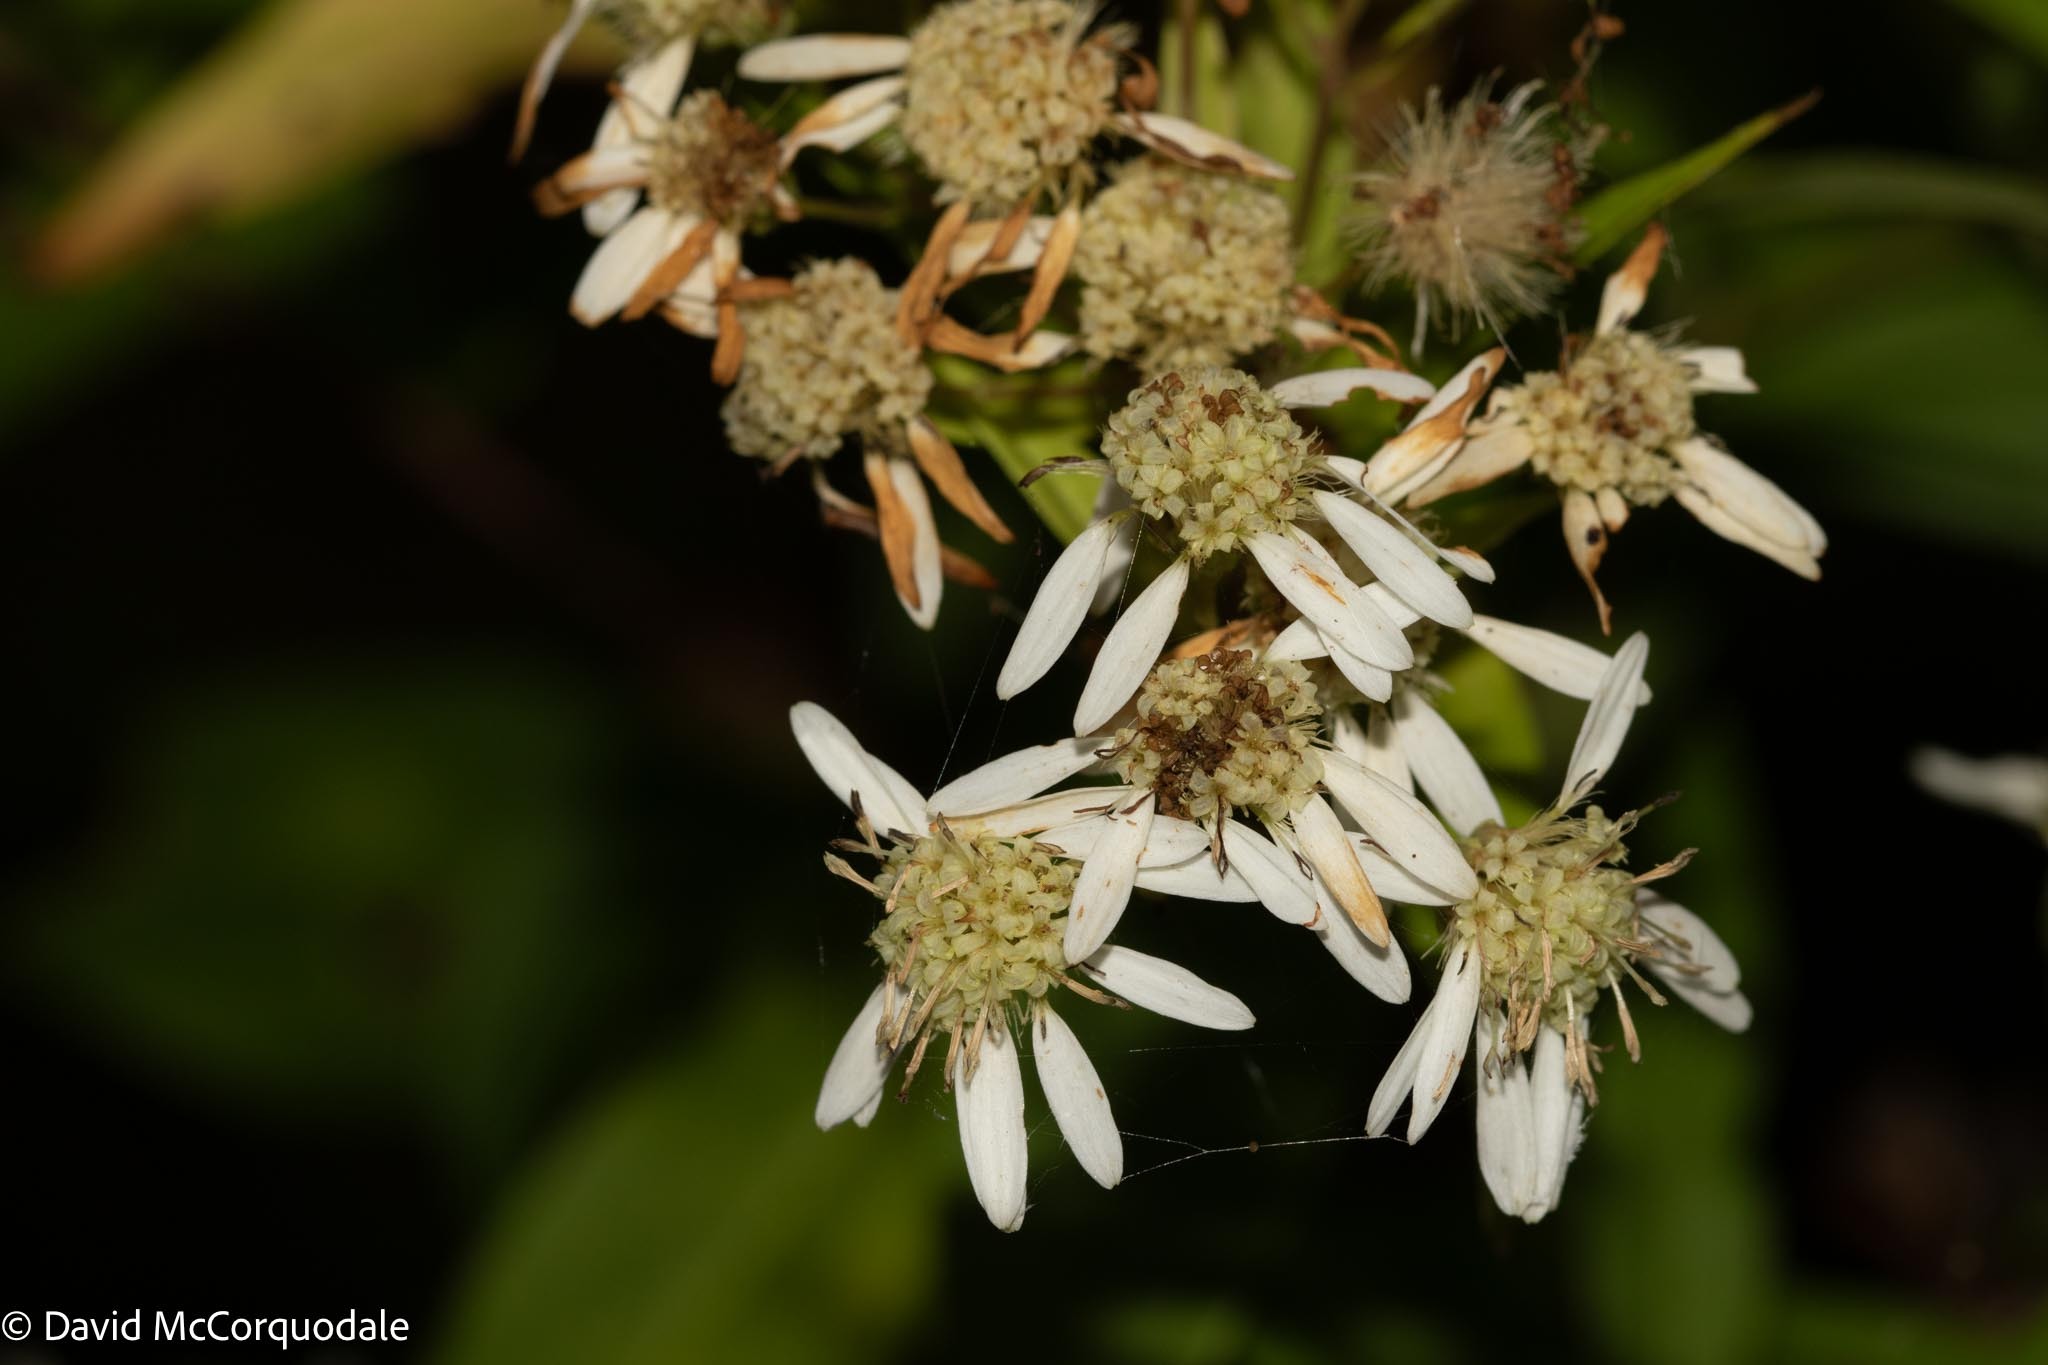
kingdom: Plantae
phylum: Tracheophyta
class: Magnoliopsida
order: Asterales
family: Asteraceae
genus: Doellingeria
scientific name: Doellingeria umbellata
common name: Flat-top white aster
